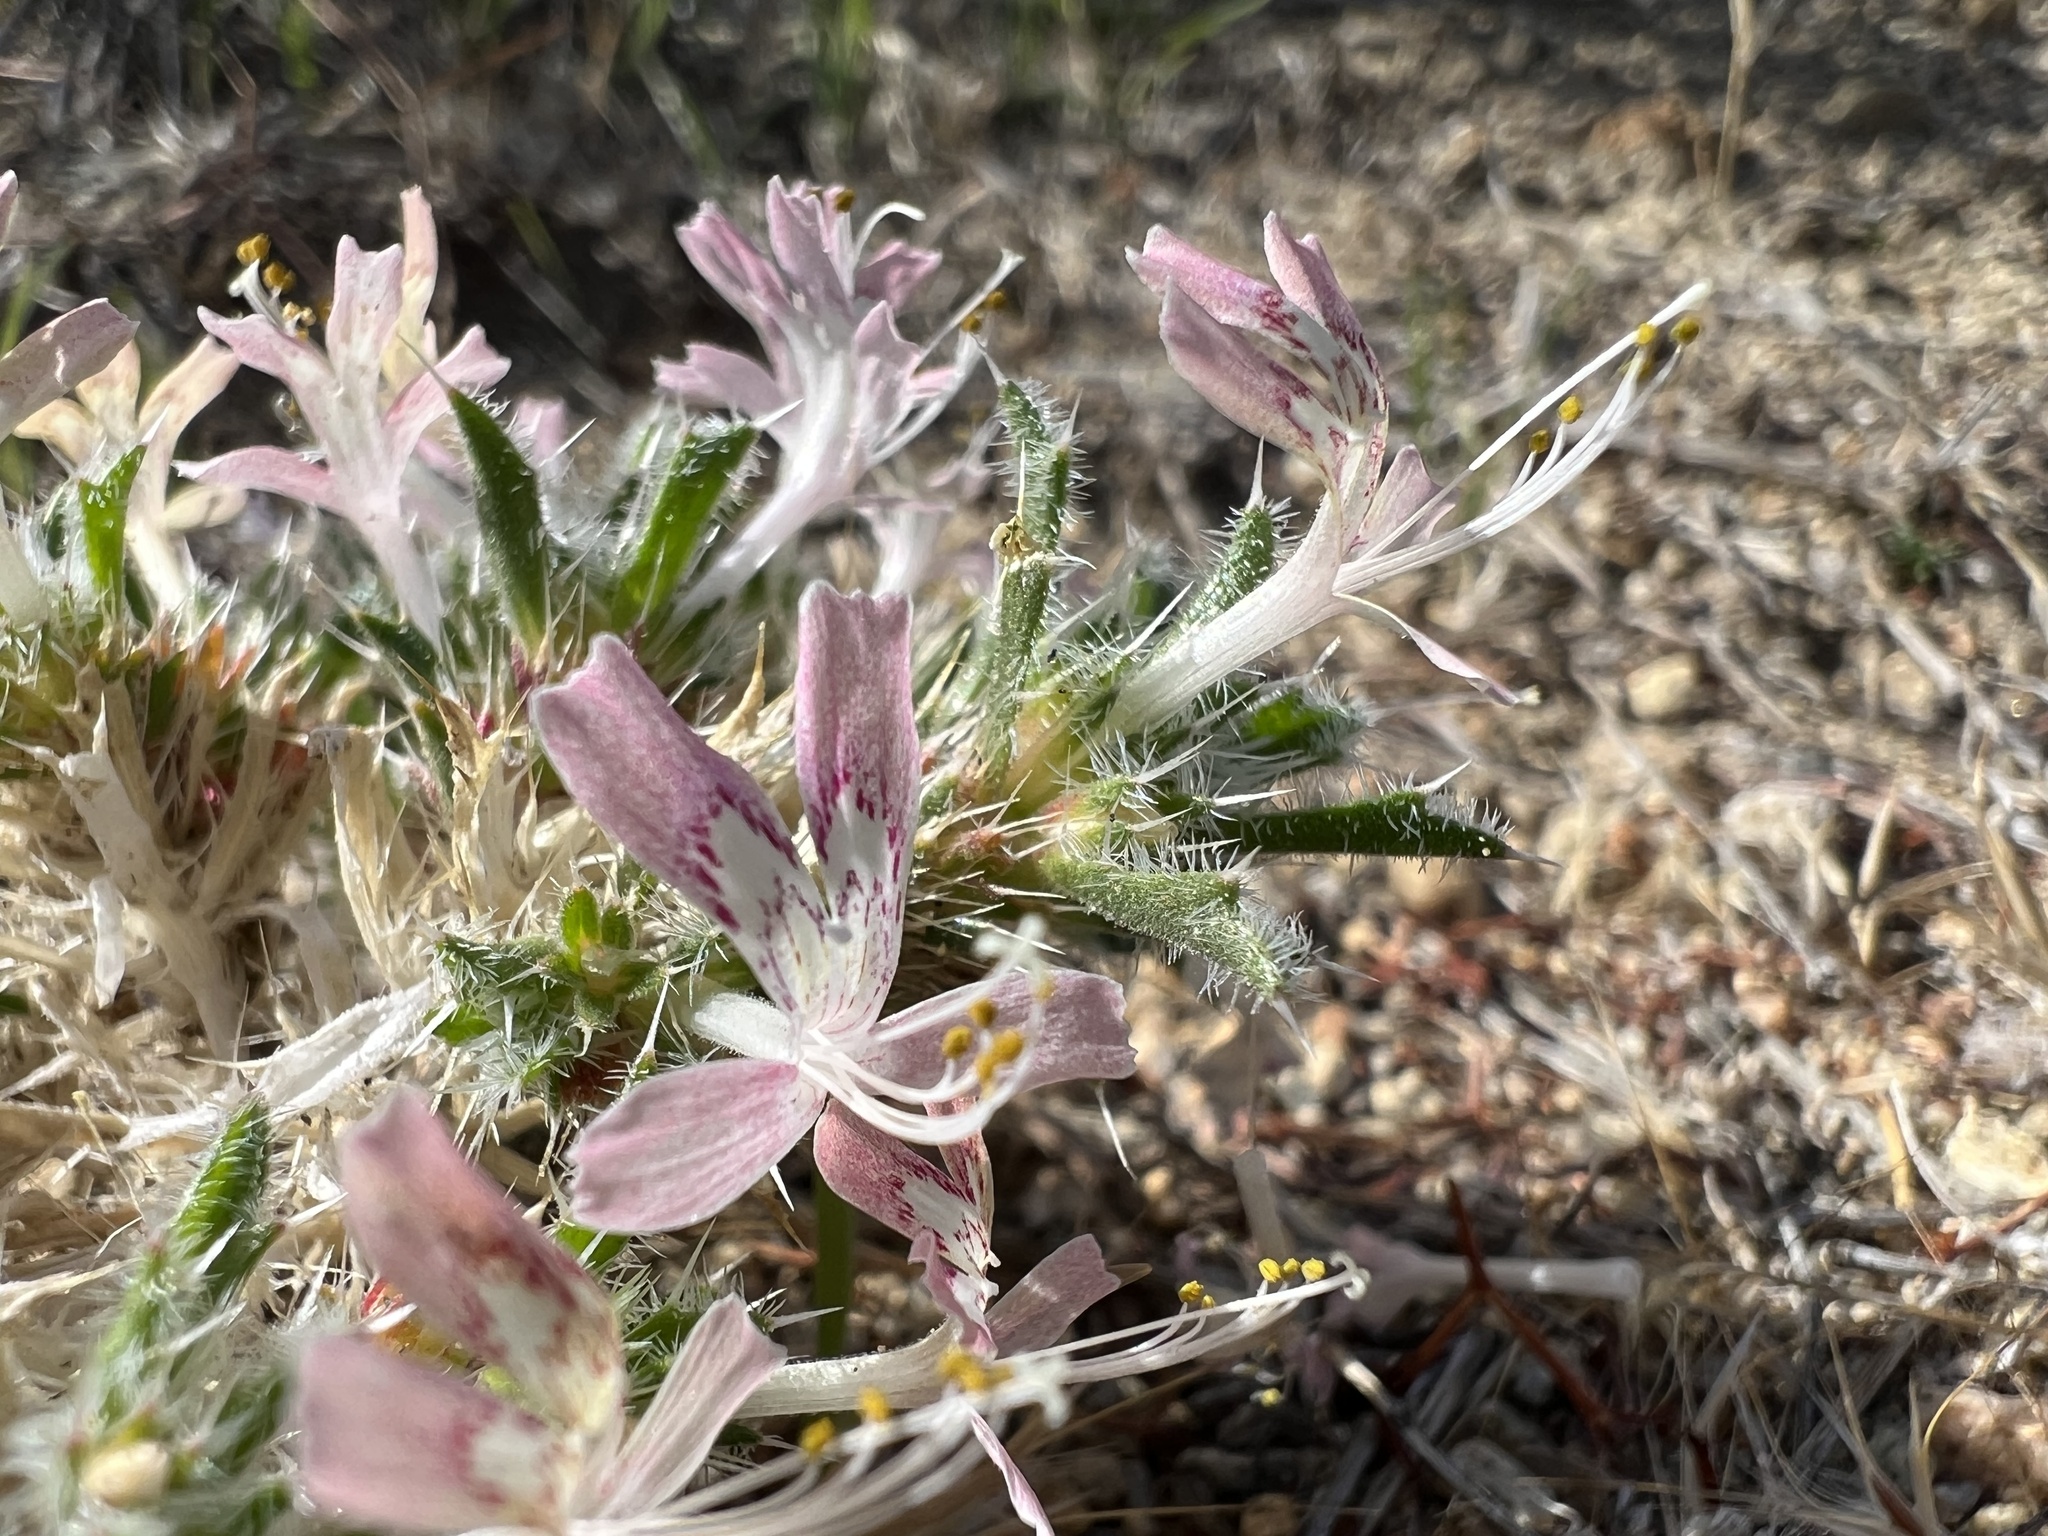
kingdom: Plantae
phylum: Tracheophyta
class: Magnoliopsida
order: Ericales
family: Polemoniaceae
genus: Loeseliastrum
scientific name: Loeseliastrum matthewsii
